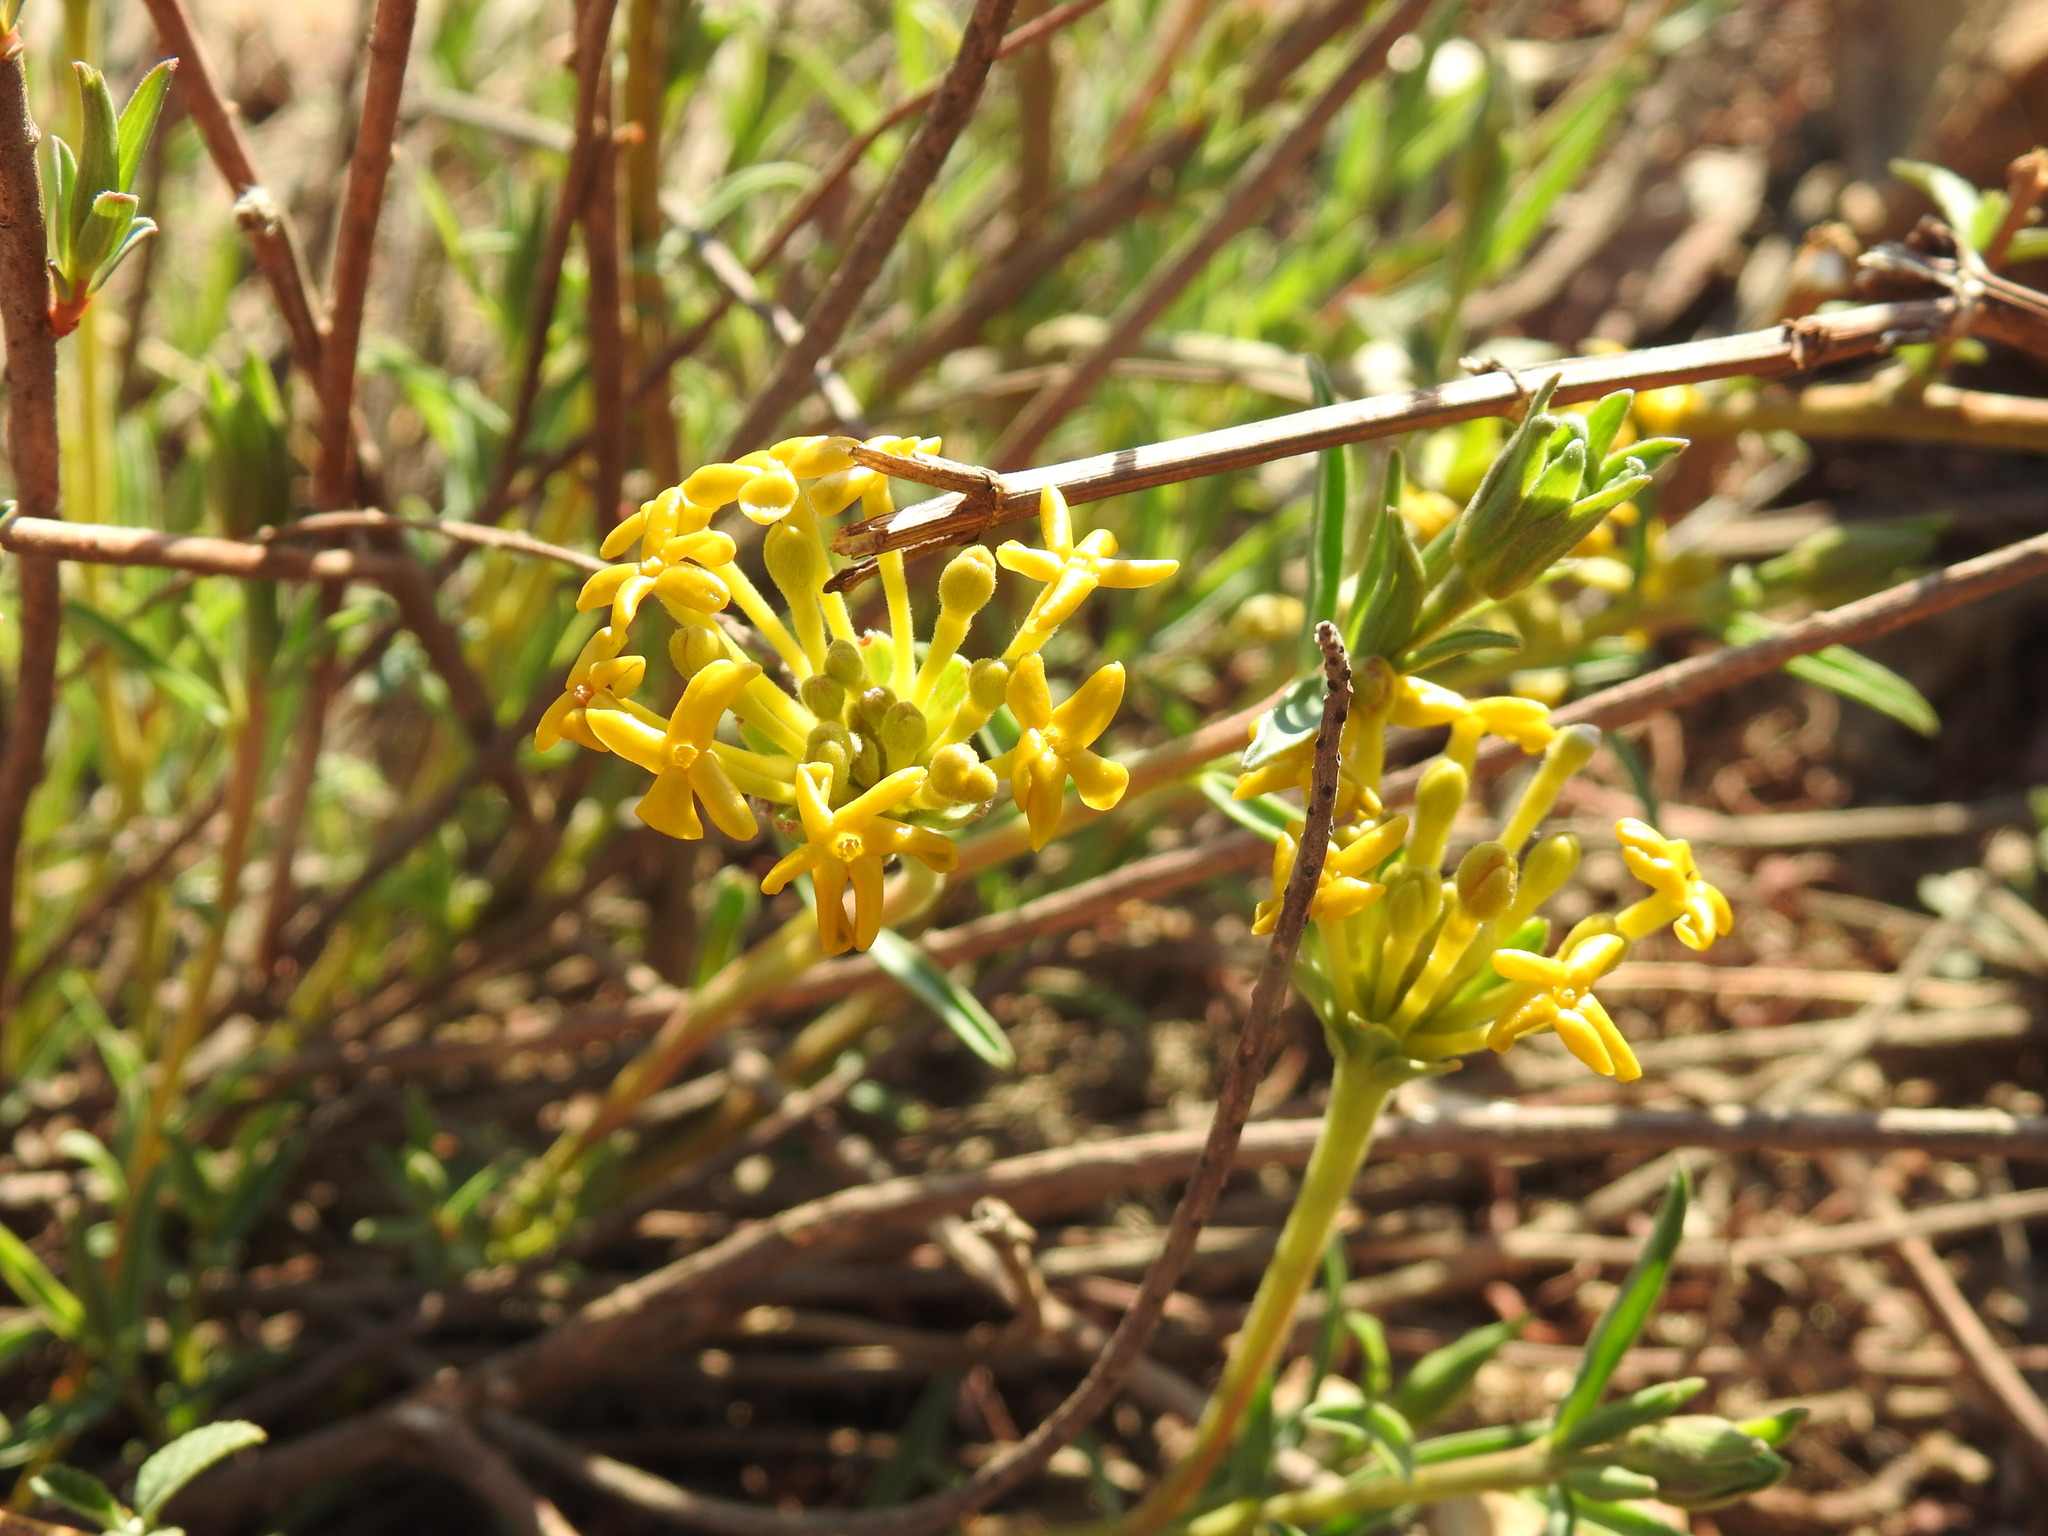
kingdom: Plantae
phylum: Tracheophyta
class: Magnoliopsida
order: Malvales
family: Thymelaeaceae
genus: Gnidia
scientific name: Gnidia capitata
